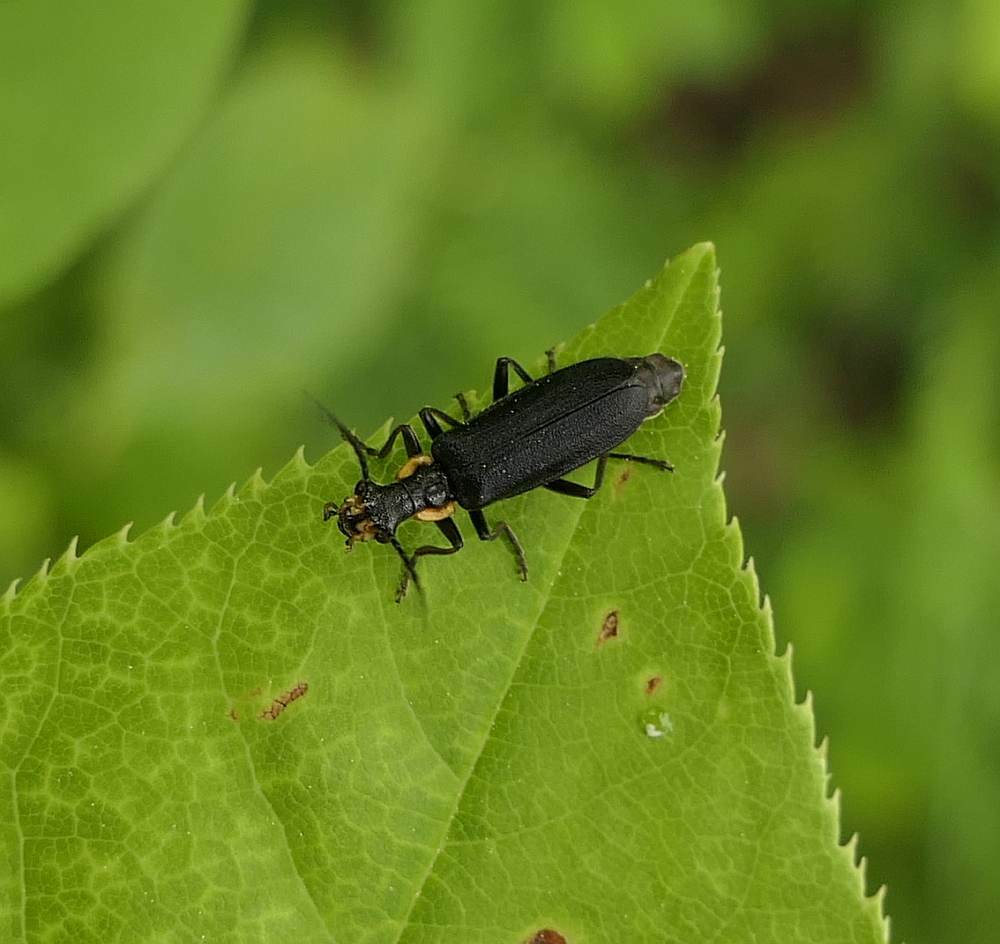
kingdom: Animalia
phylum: Arthropoda
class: Insecta
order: Coleoptera
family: Cantharidae
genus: Podabrus
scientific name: Podabrus rugosulus
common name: Wrinkled soldier beetle
